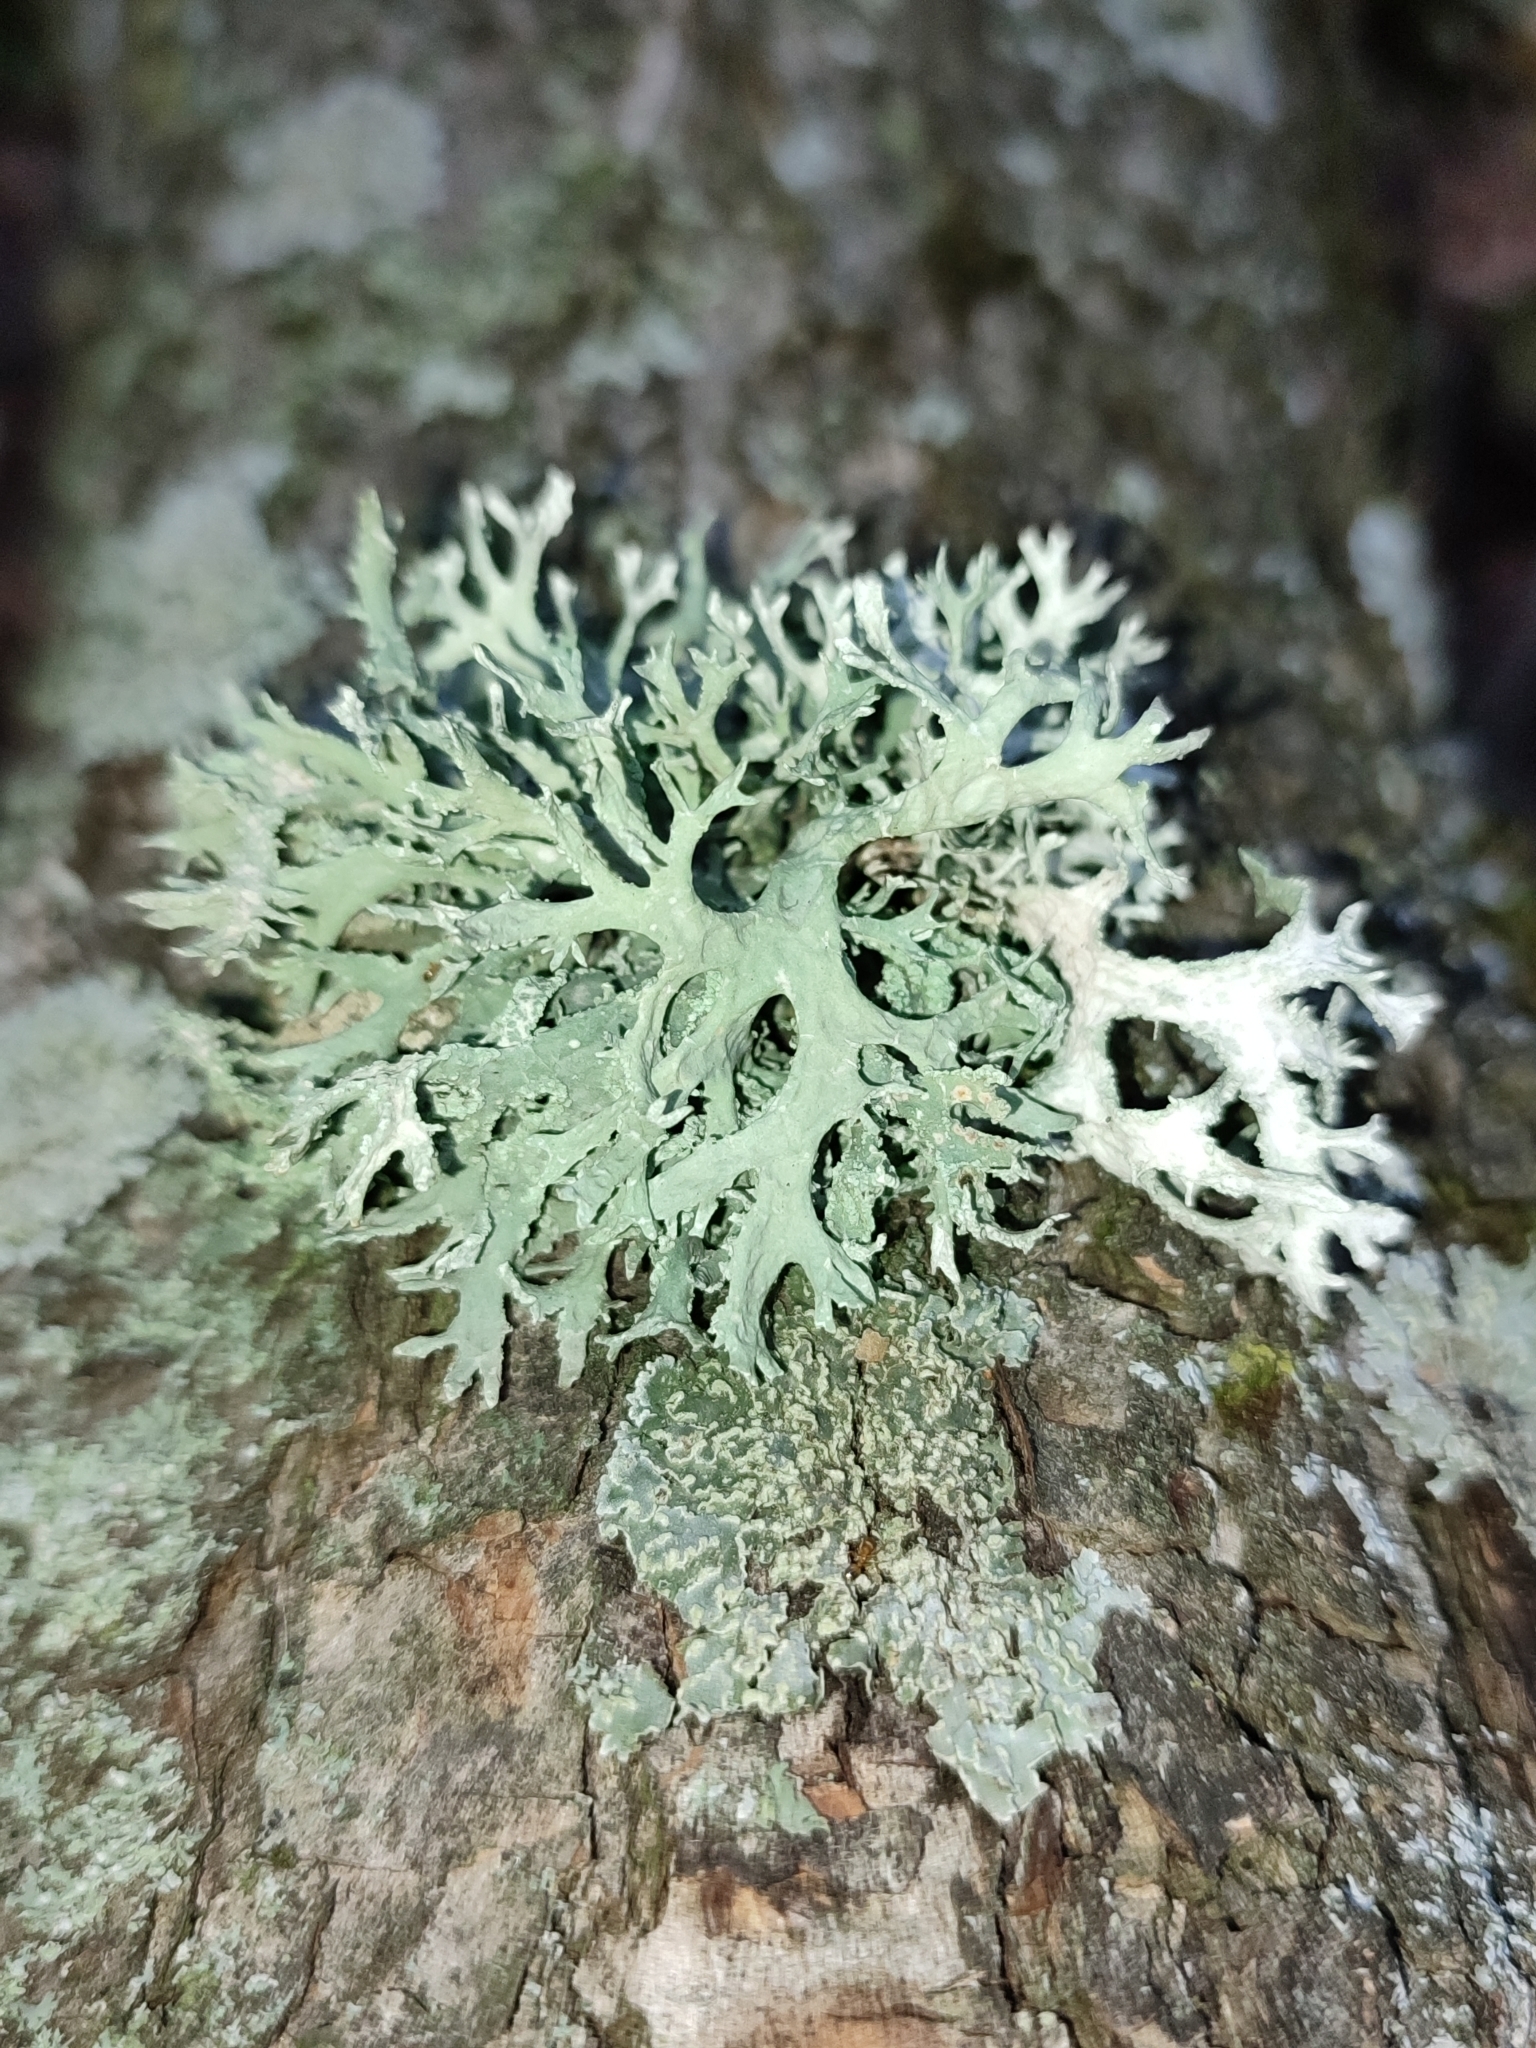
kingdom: Fungi
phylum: Ascomycota
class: Lecanoromycetes
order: Lecanorales
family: Parmeliaceae
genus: Evernia
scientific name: Evernia prunastri
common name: Oak moss
